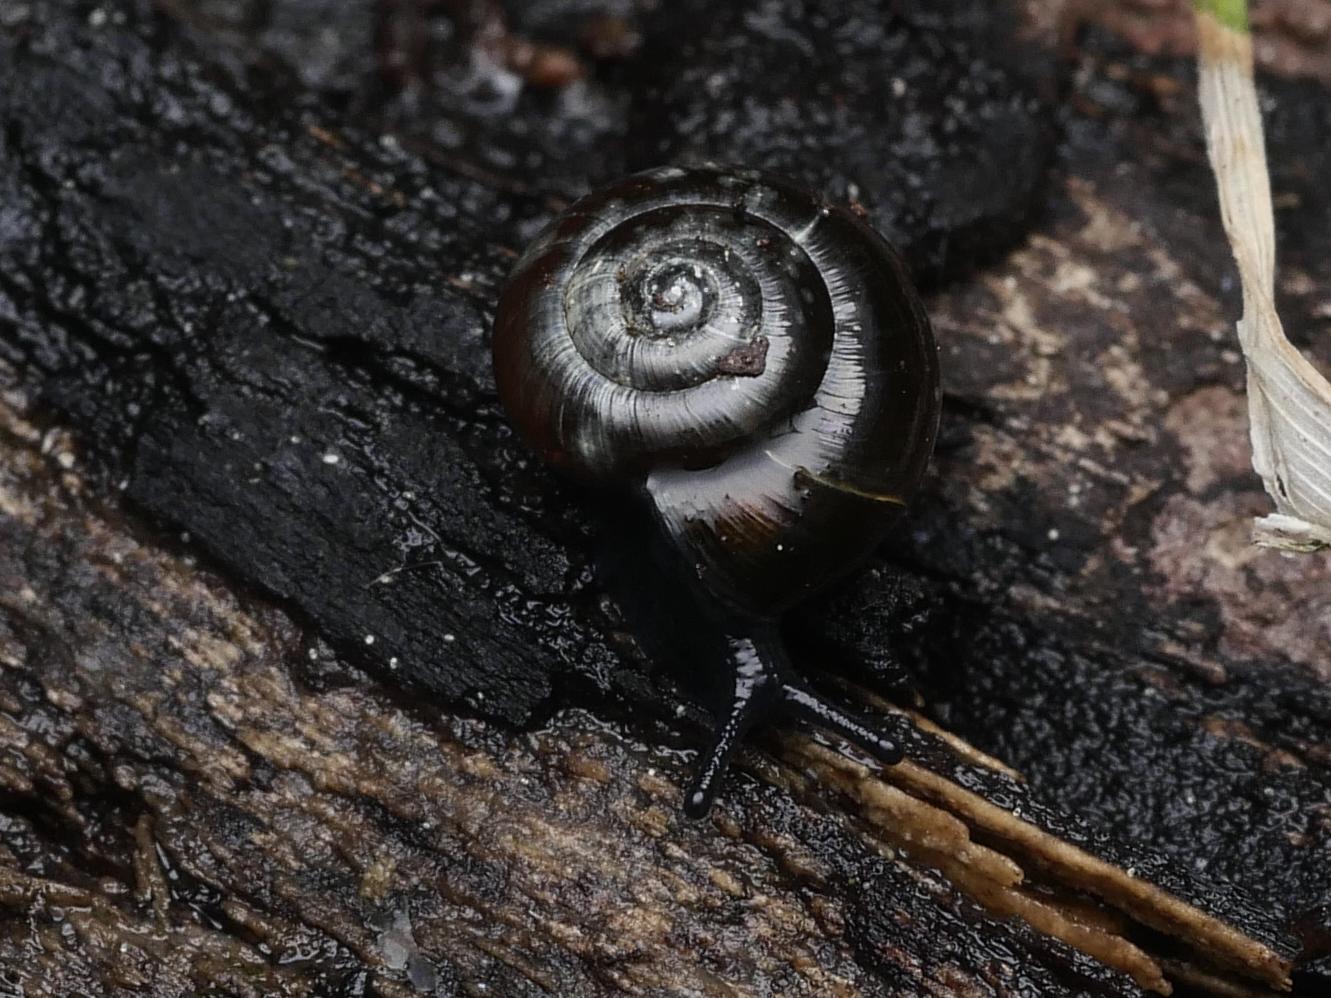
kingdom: Animalia
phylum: Mollusca
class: Gastropoda
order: Stylommatophora
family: Gastrodontidae
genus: Zonitoides
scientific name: Zonitoides nitidus
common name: Shiny glass snail
